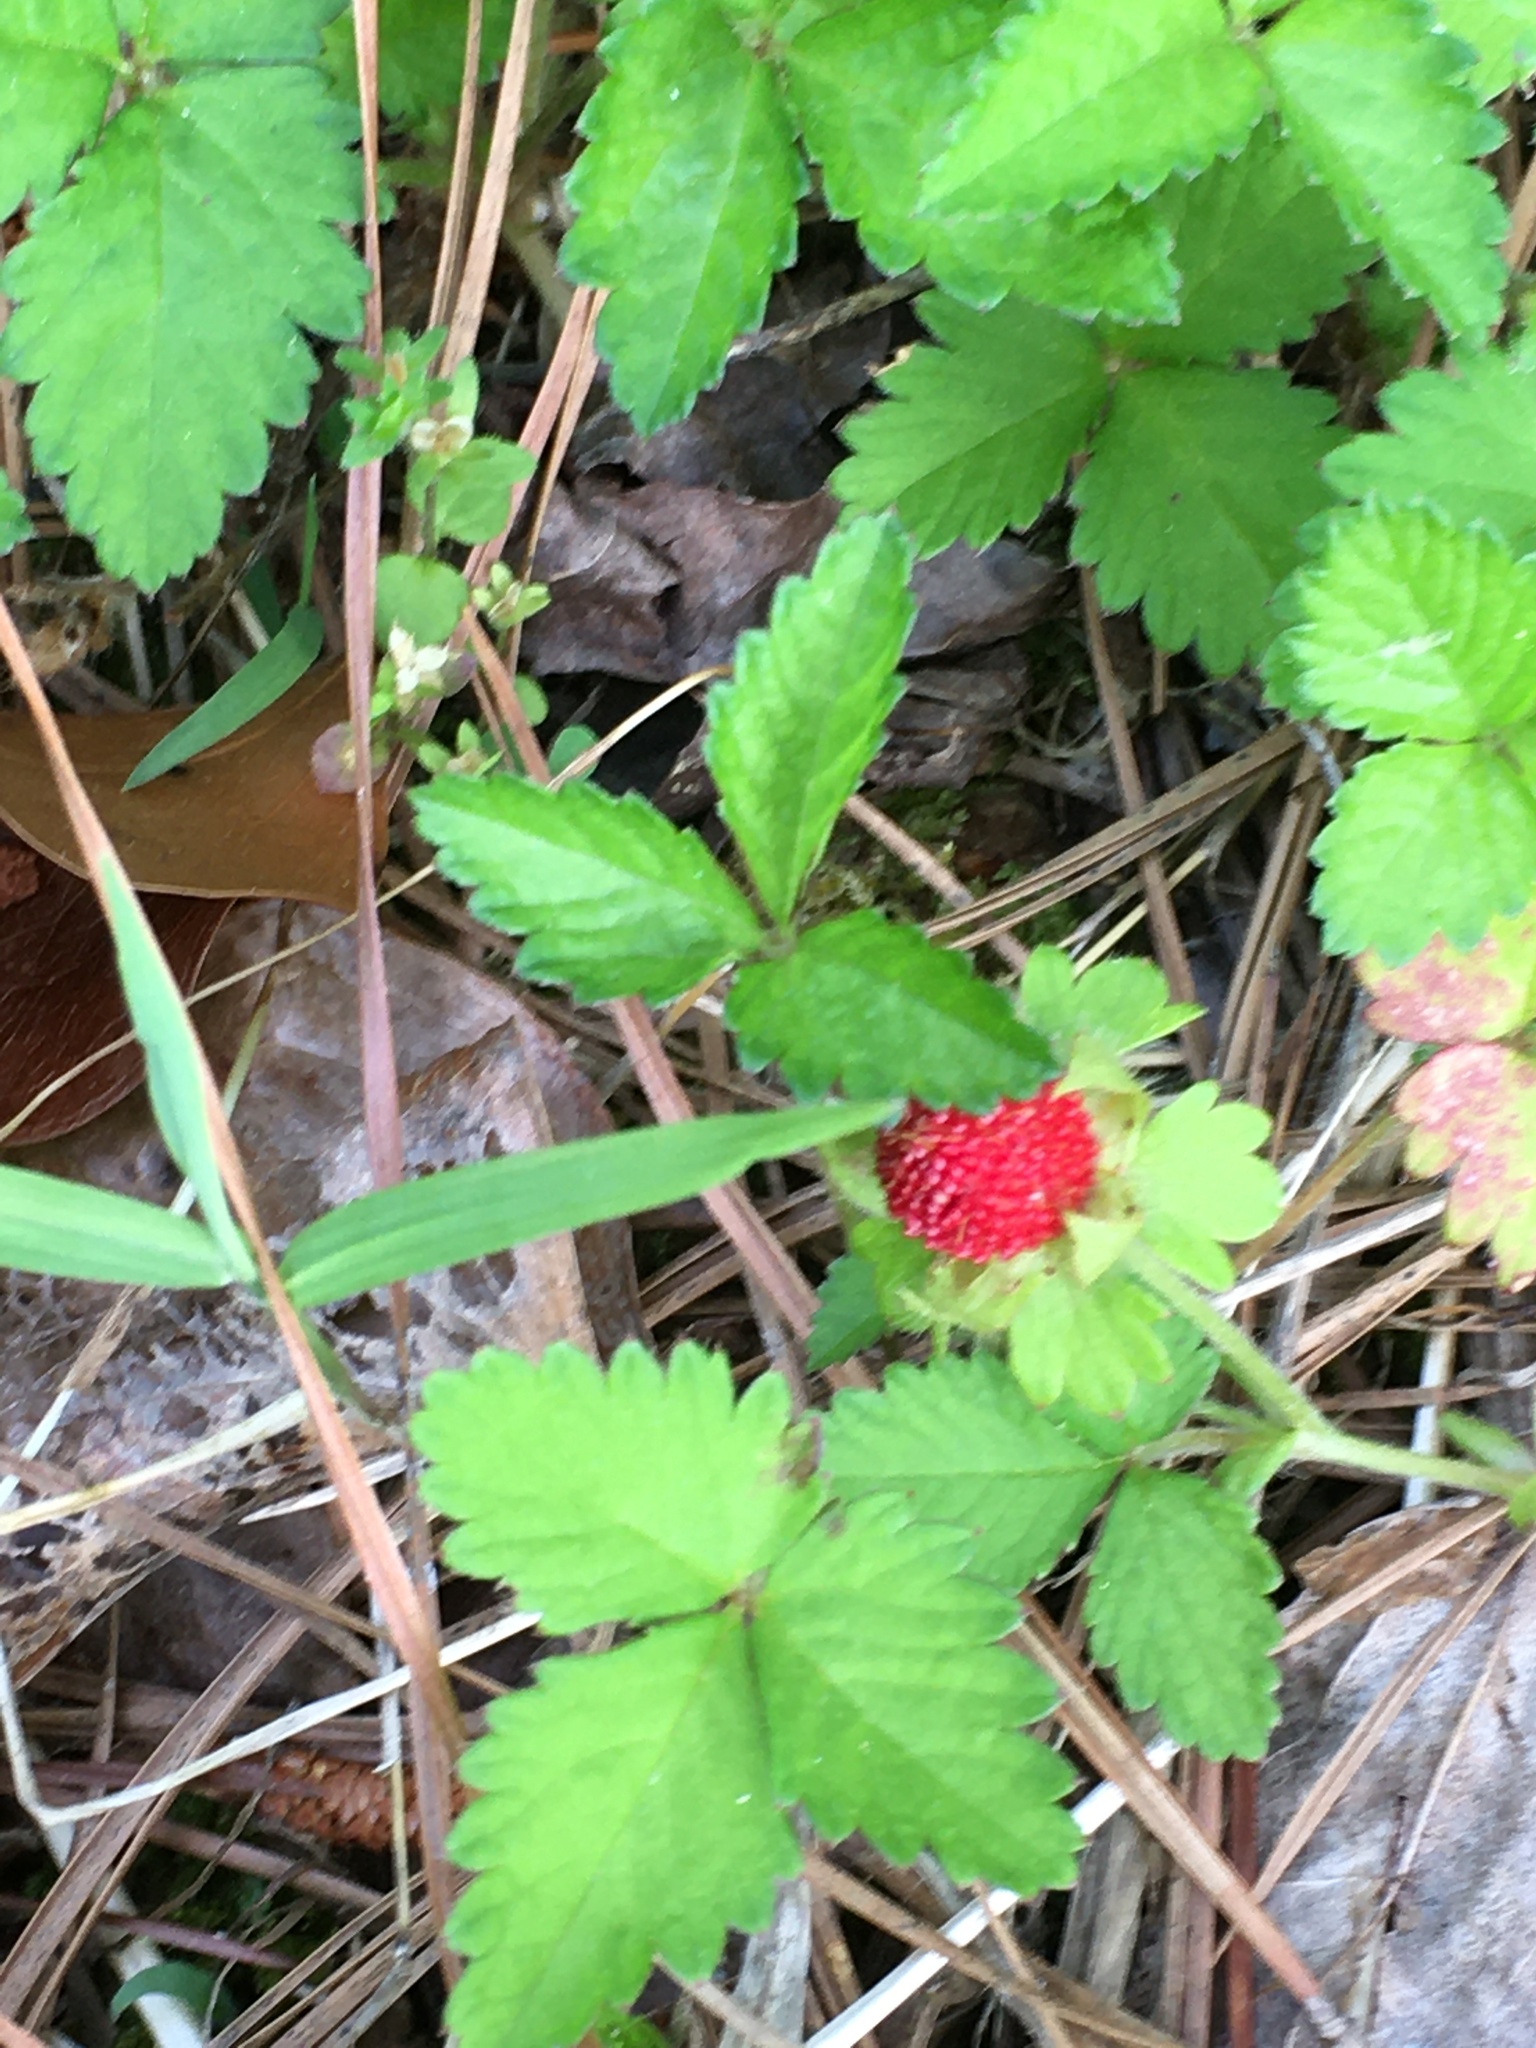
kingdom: Plantae
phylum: Tracheophyta
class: Magnoliopsida
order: Rosales
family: Rosaceae
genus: Potentilla
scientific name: Potentilla indica
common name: Yellow-flowered strawberry
